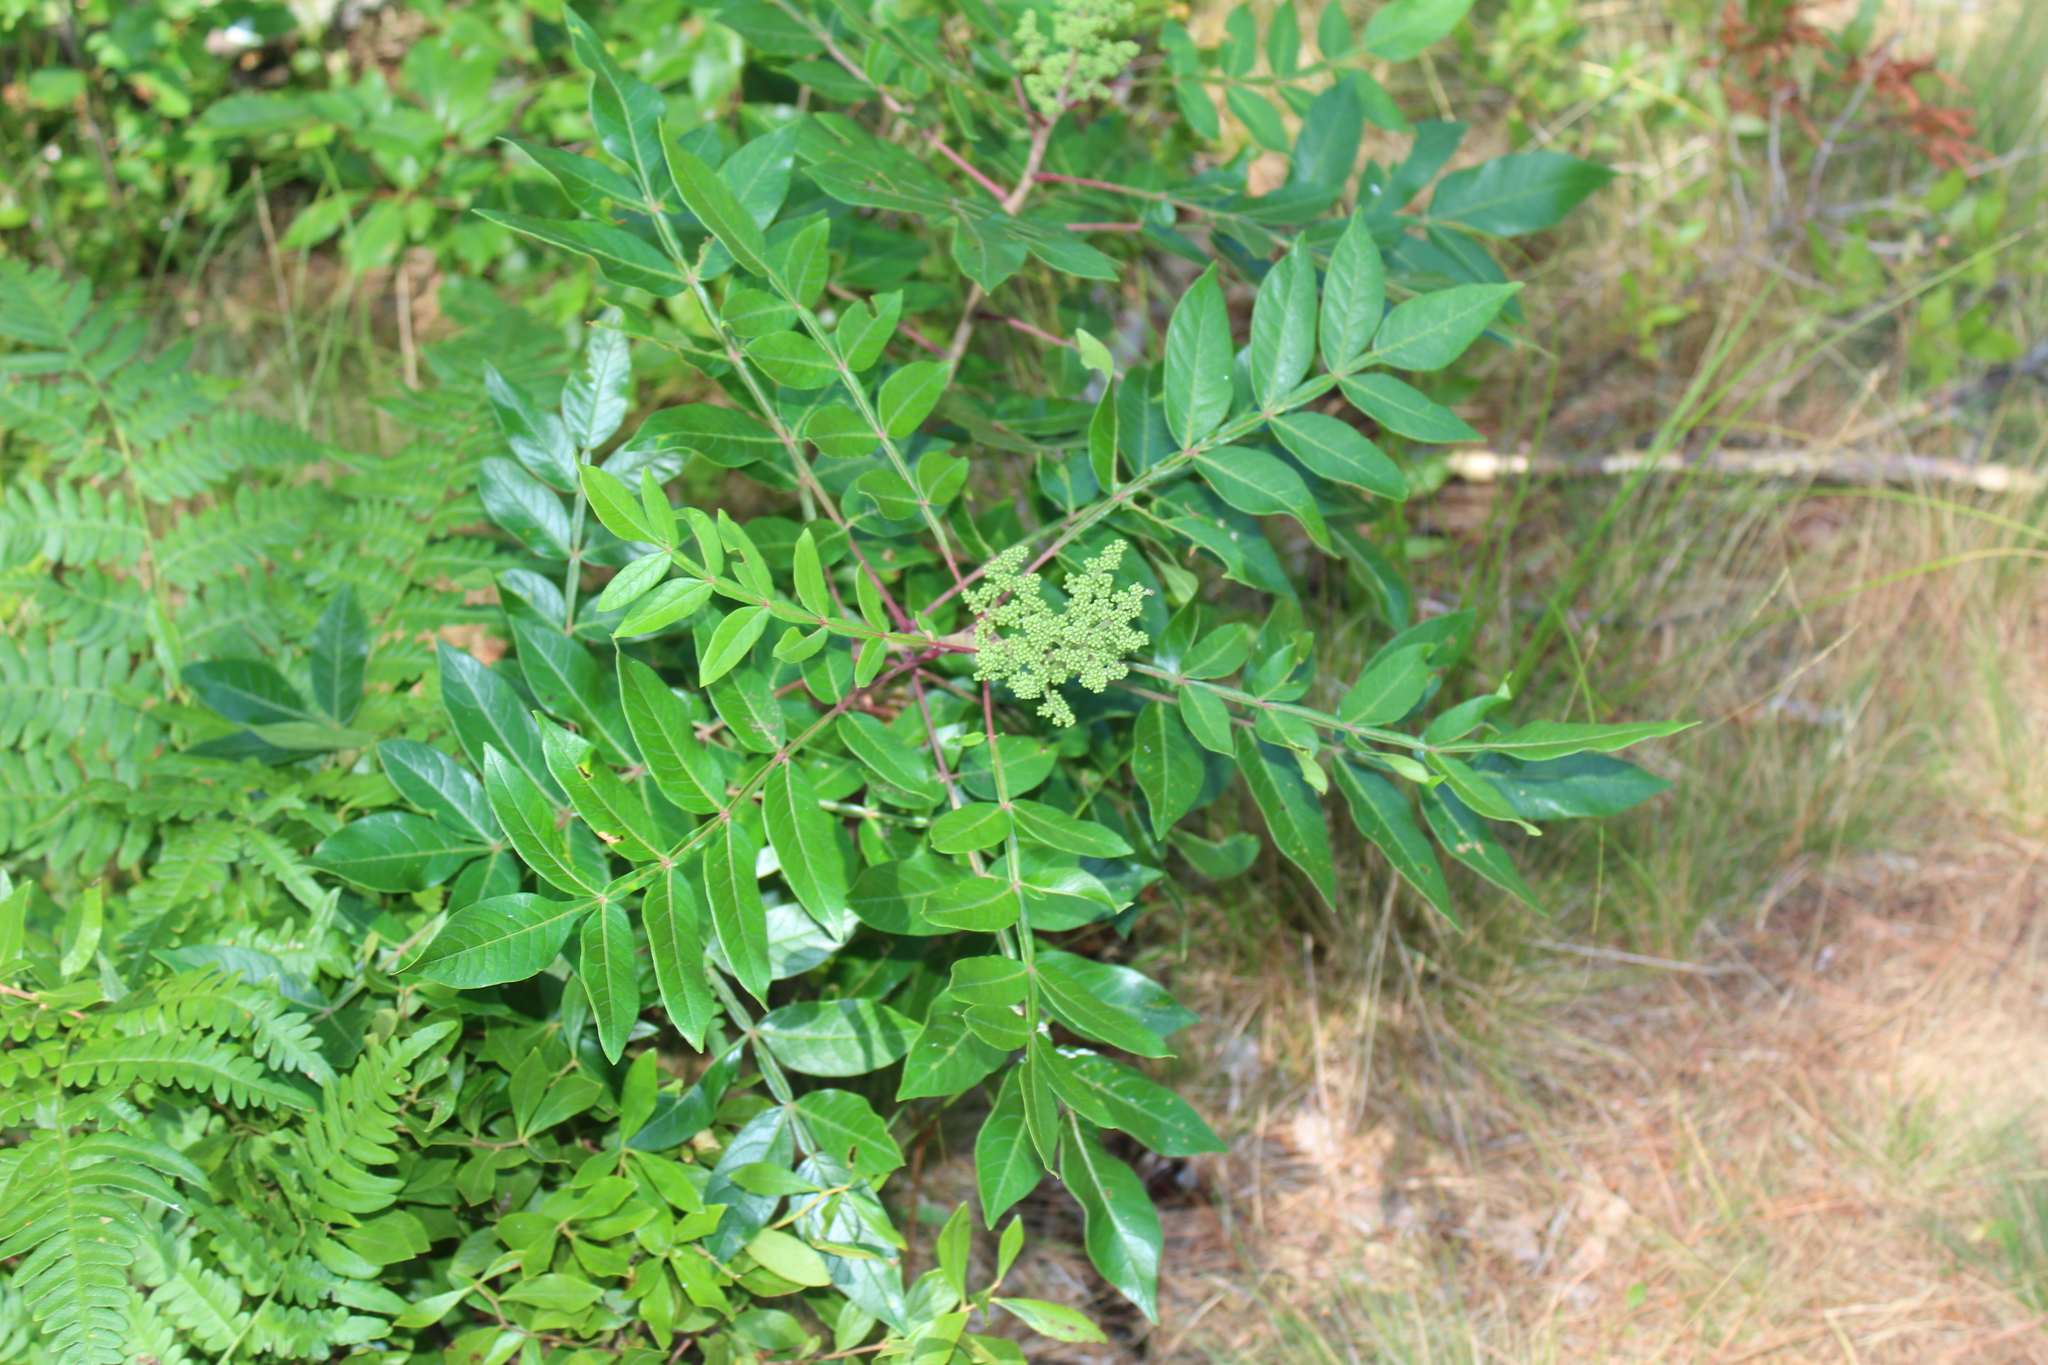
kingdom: Plantae
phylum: Tracheophyta
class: Magnoliopsida
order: Sapindales
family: Anacardiaceae
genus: Rhus
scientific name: Rhus copallina
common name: Shining sumac
